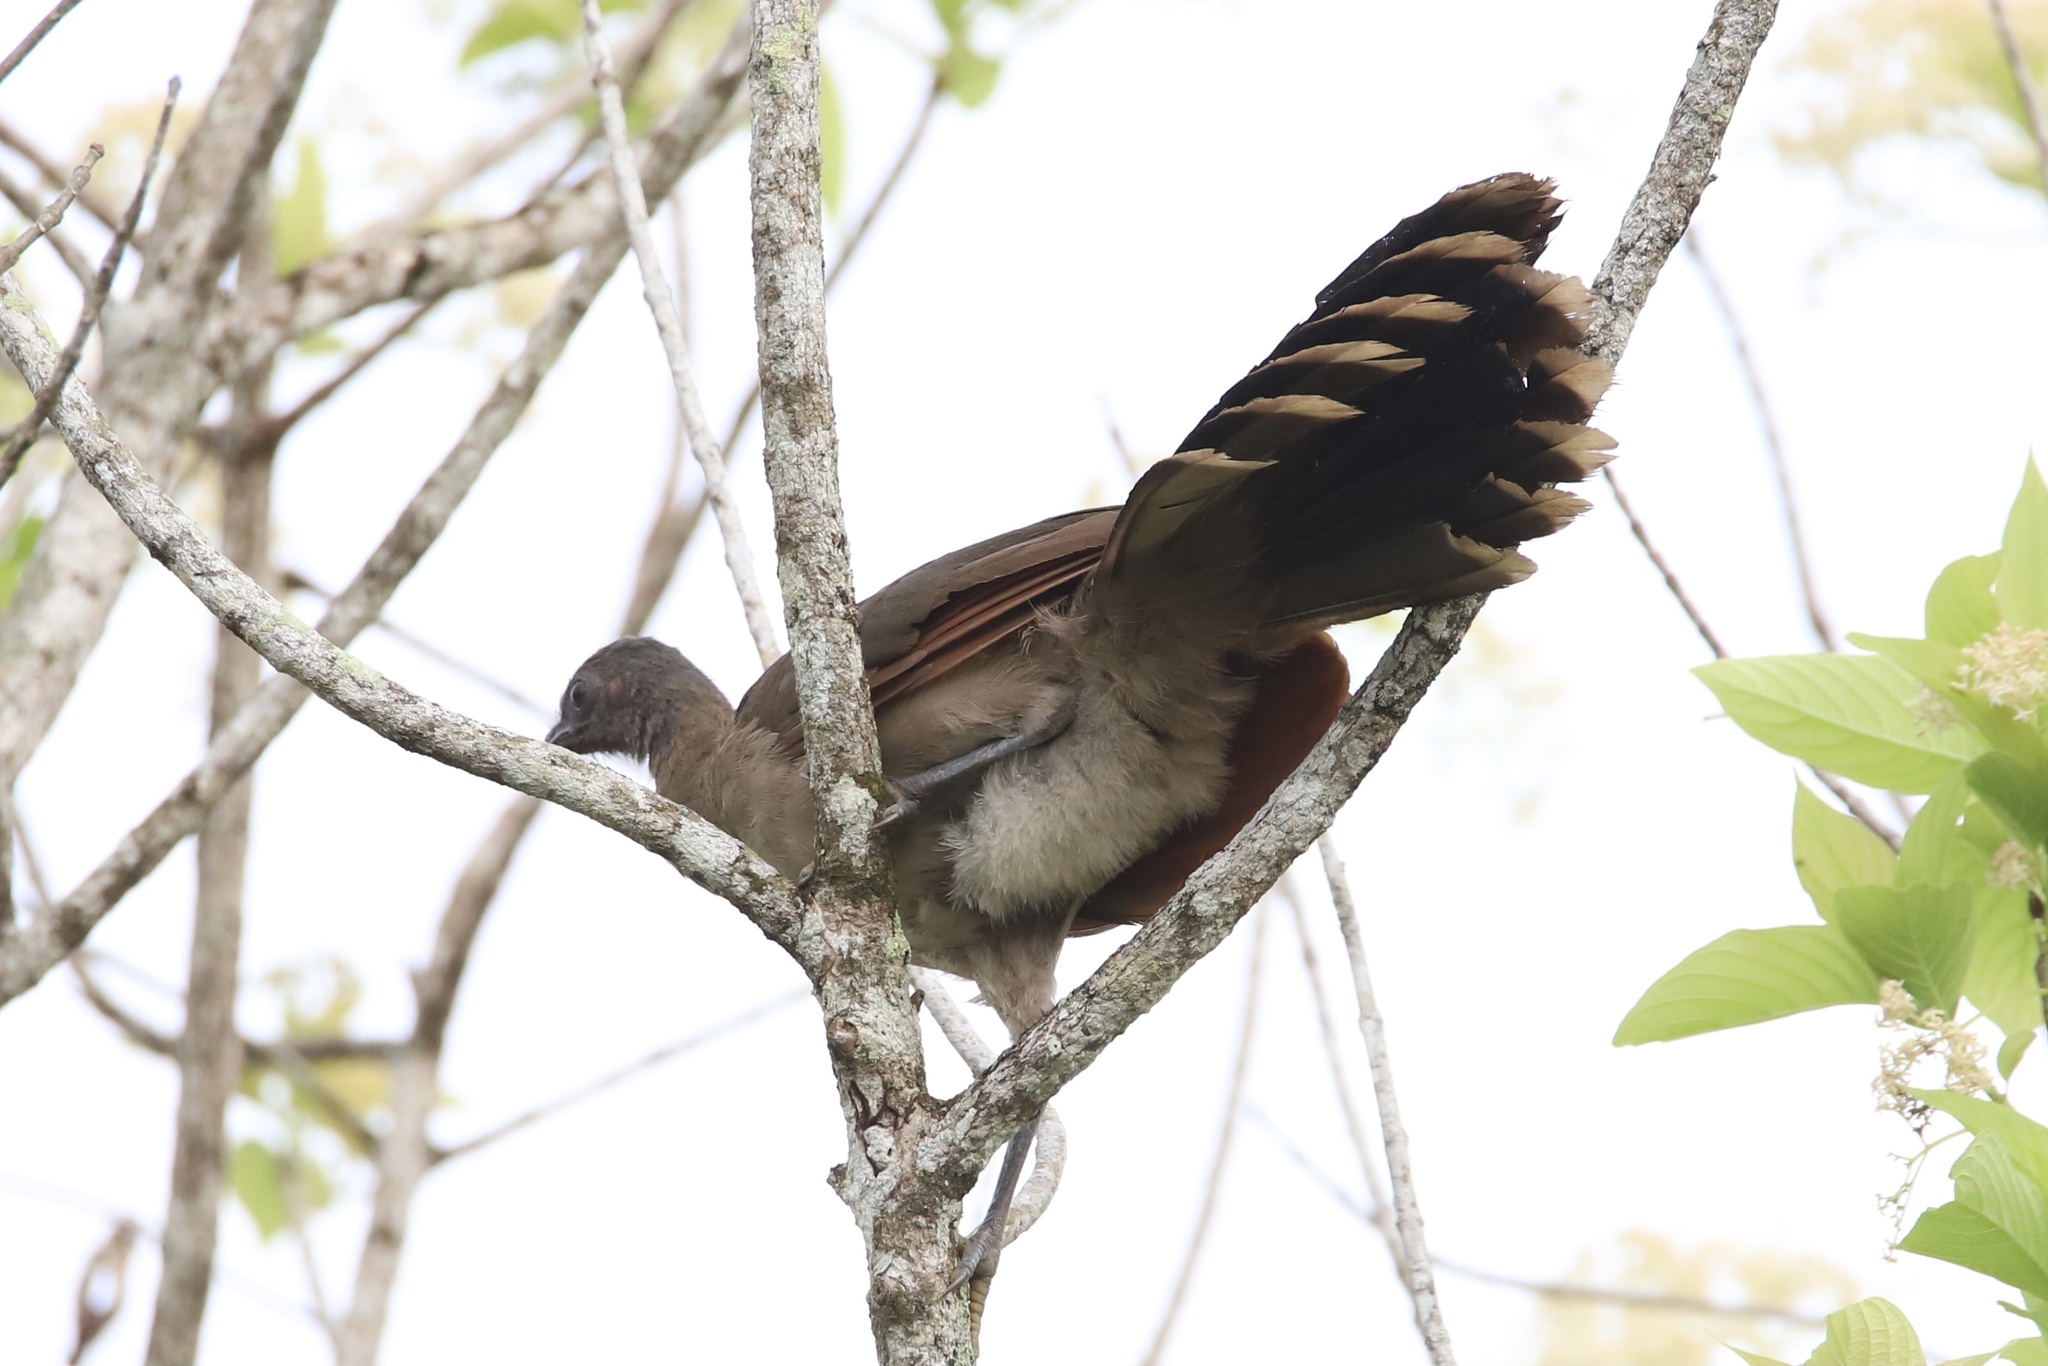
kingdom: Animalia
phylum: Chordata
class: Aves
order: Galliformes
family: Cracidae
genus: Ortalis
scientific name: Ortalis cinereiceps
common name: Grey-headed chachalaca
